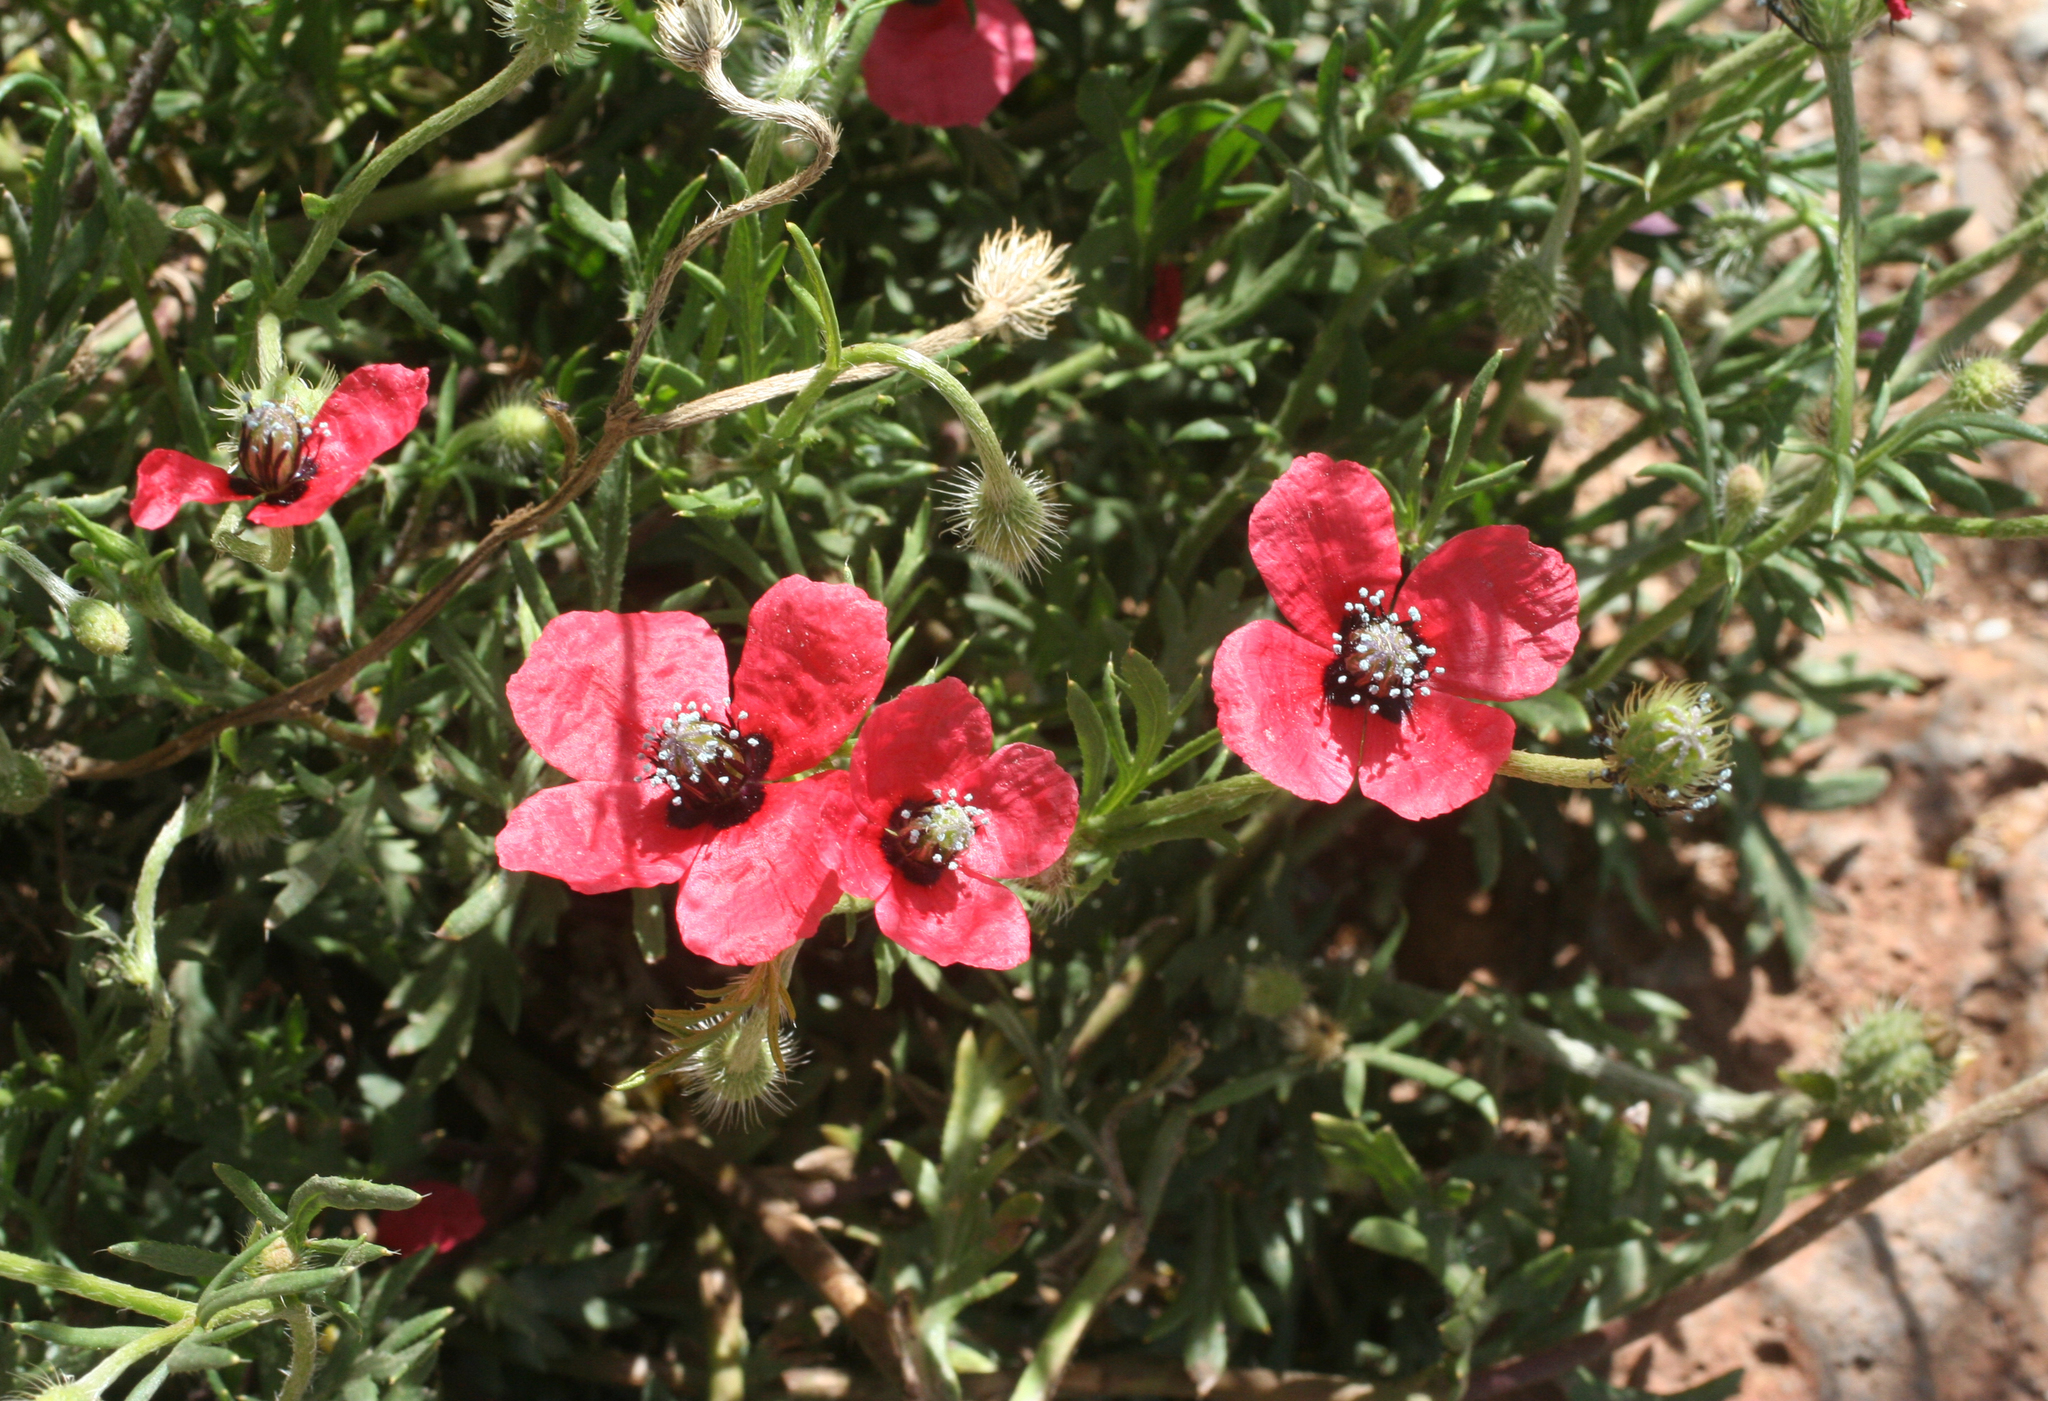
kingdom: Plantae
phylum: Tracheophyta
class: Magnoliopsida
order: Ranunculales
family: Papaveraceae
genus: Roemeria
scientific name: Roemeria hispida
